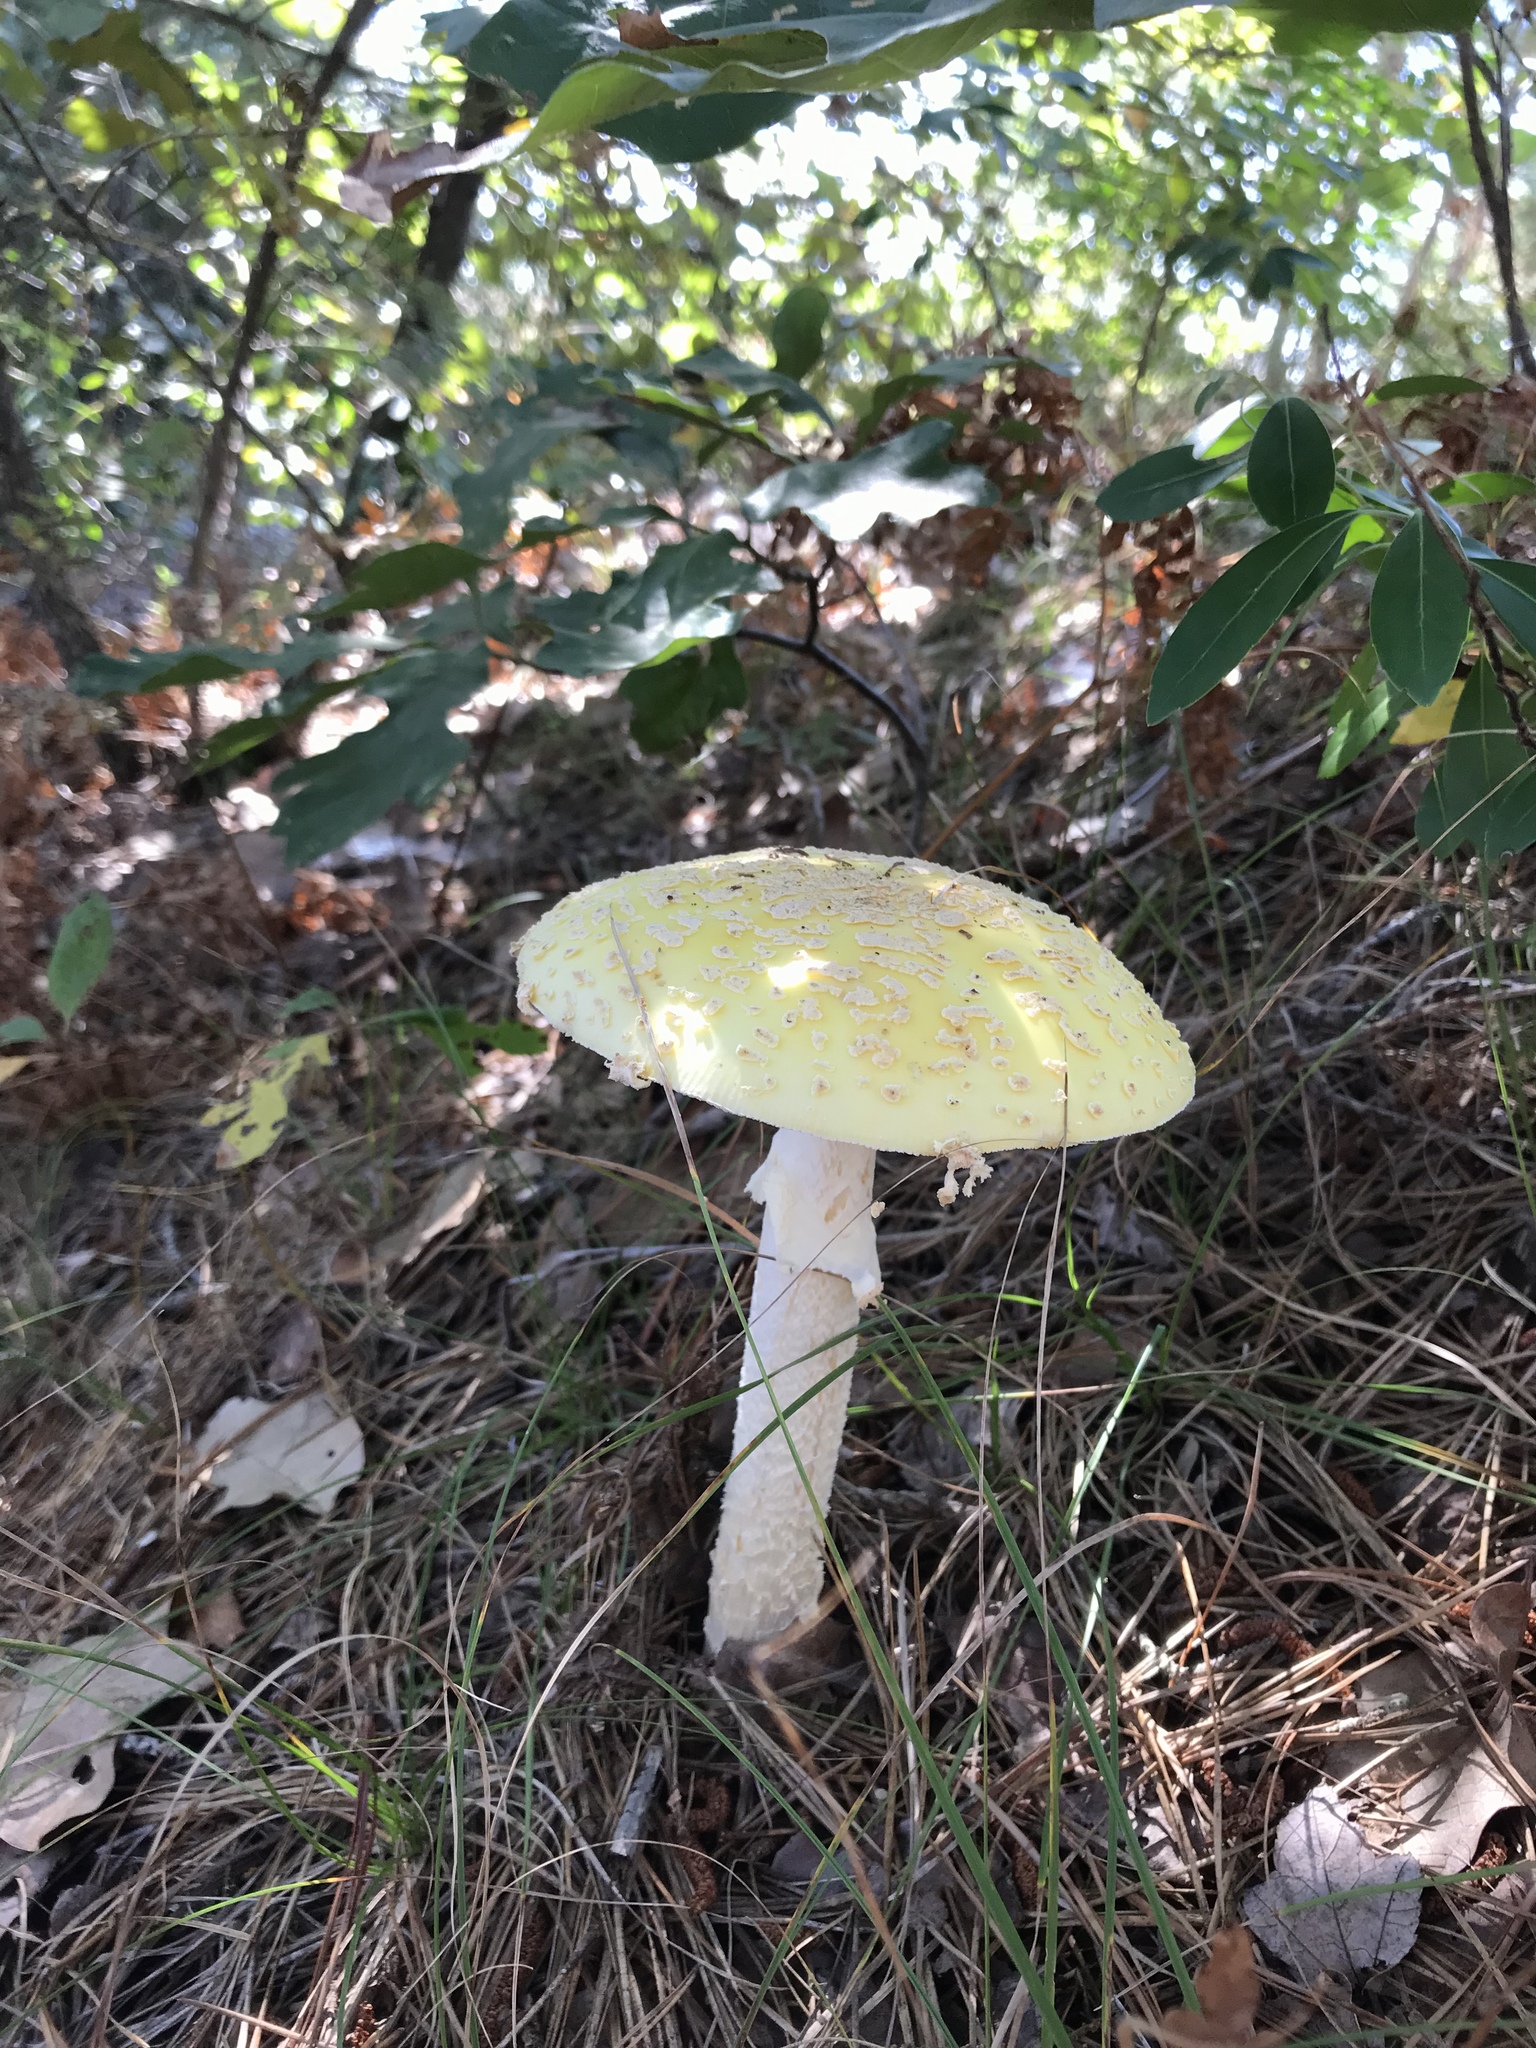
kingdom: Fungi
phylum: Basidiomycota
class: Agaricomycetes
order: Agaricales
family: Amanitaceae
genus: Amanita
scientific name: Amanita muscaria
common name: Fly agaric
